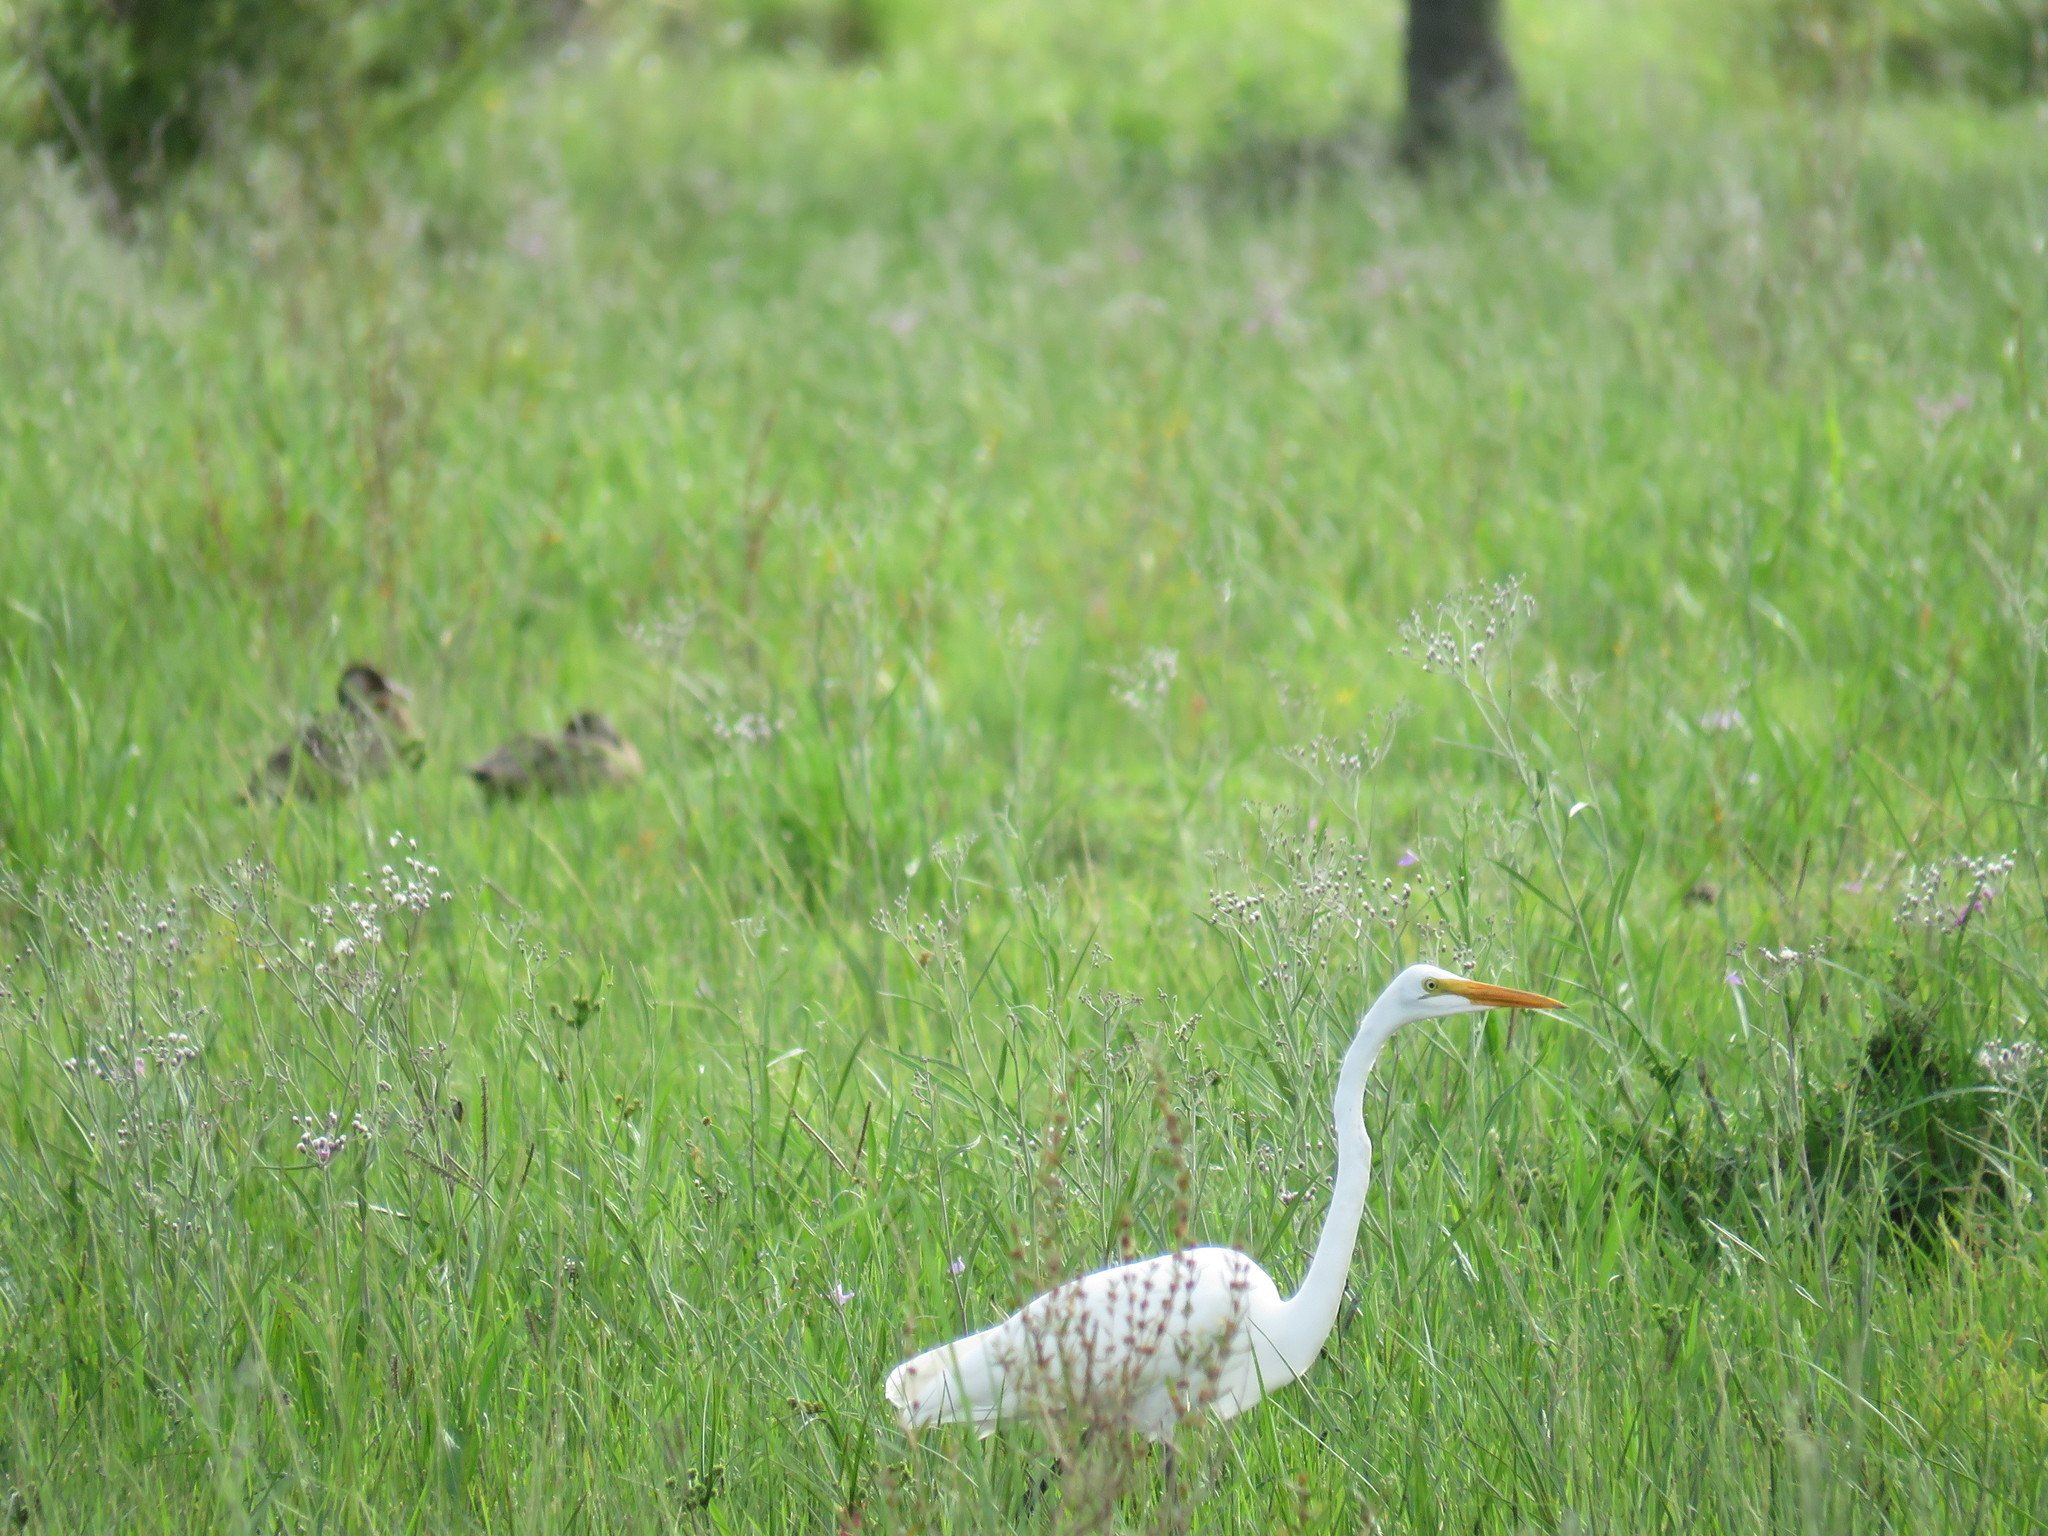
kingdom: Animalia
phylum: Chordata
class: Aves
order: Pelecaniformes
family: Ardeidae
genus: Ardea
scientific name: Ardea alba
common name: Great egret
